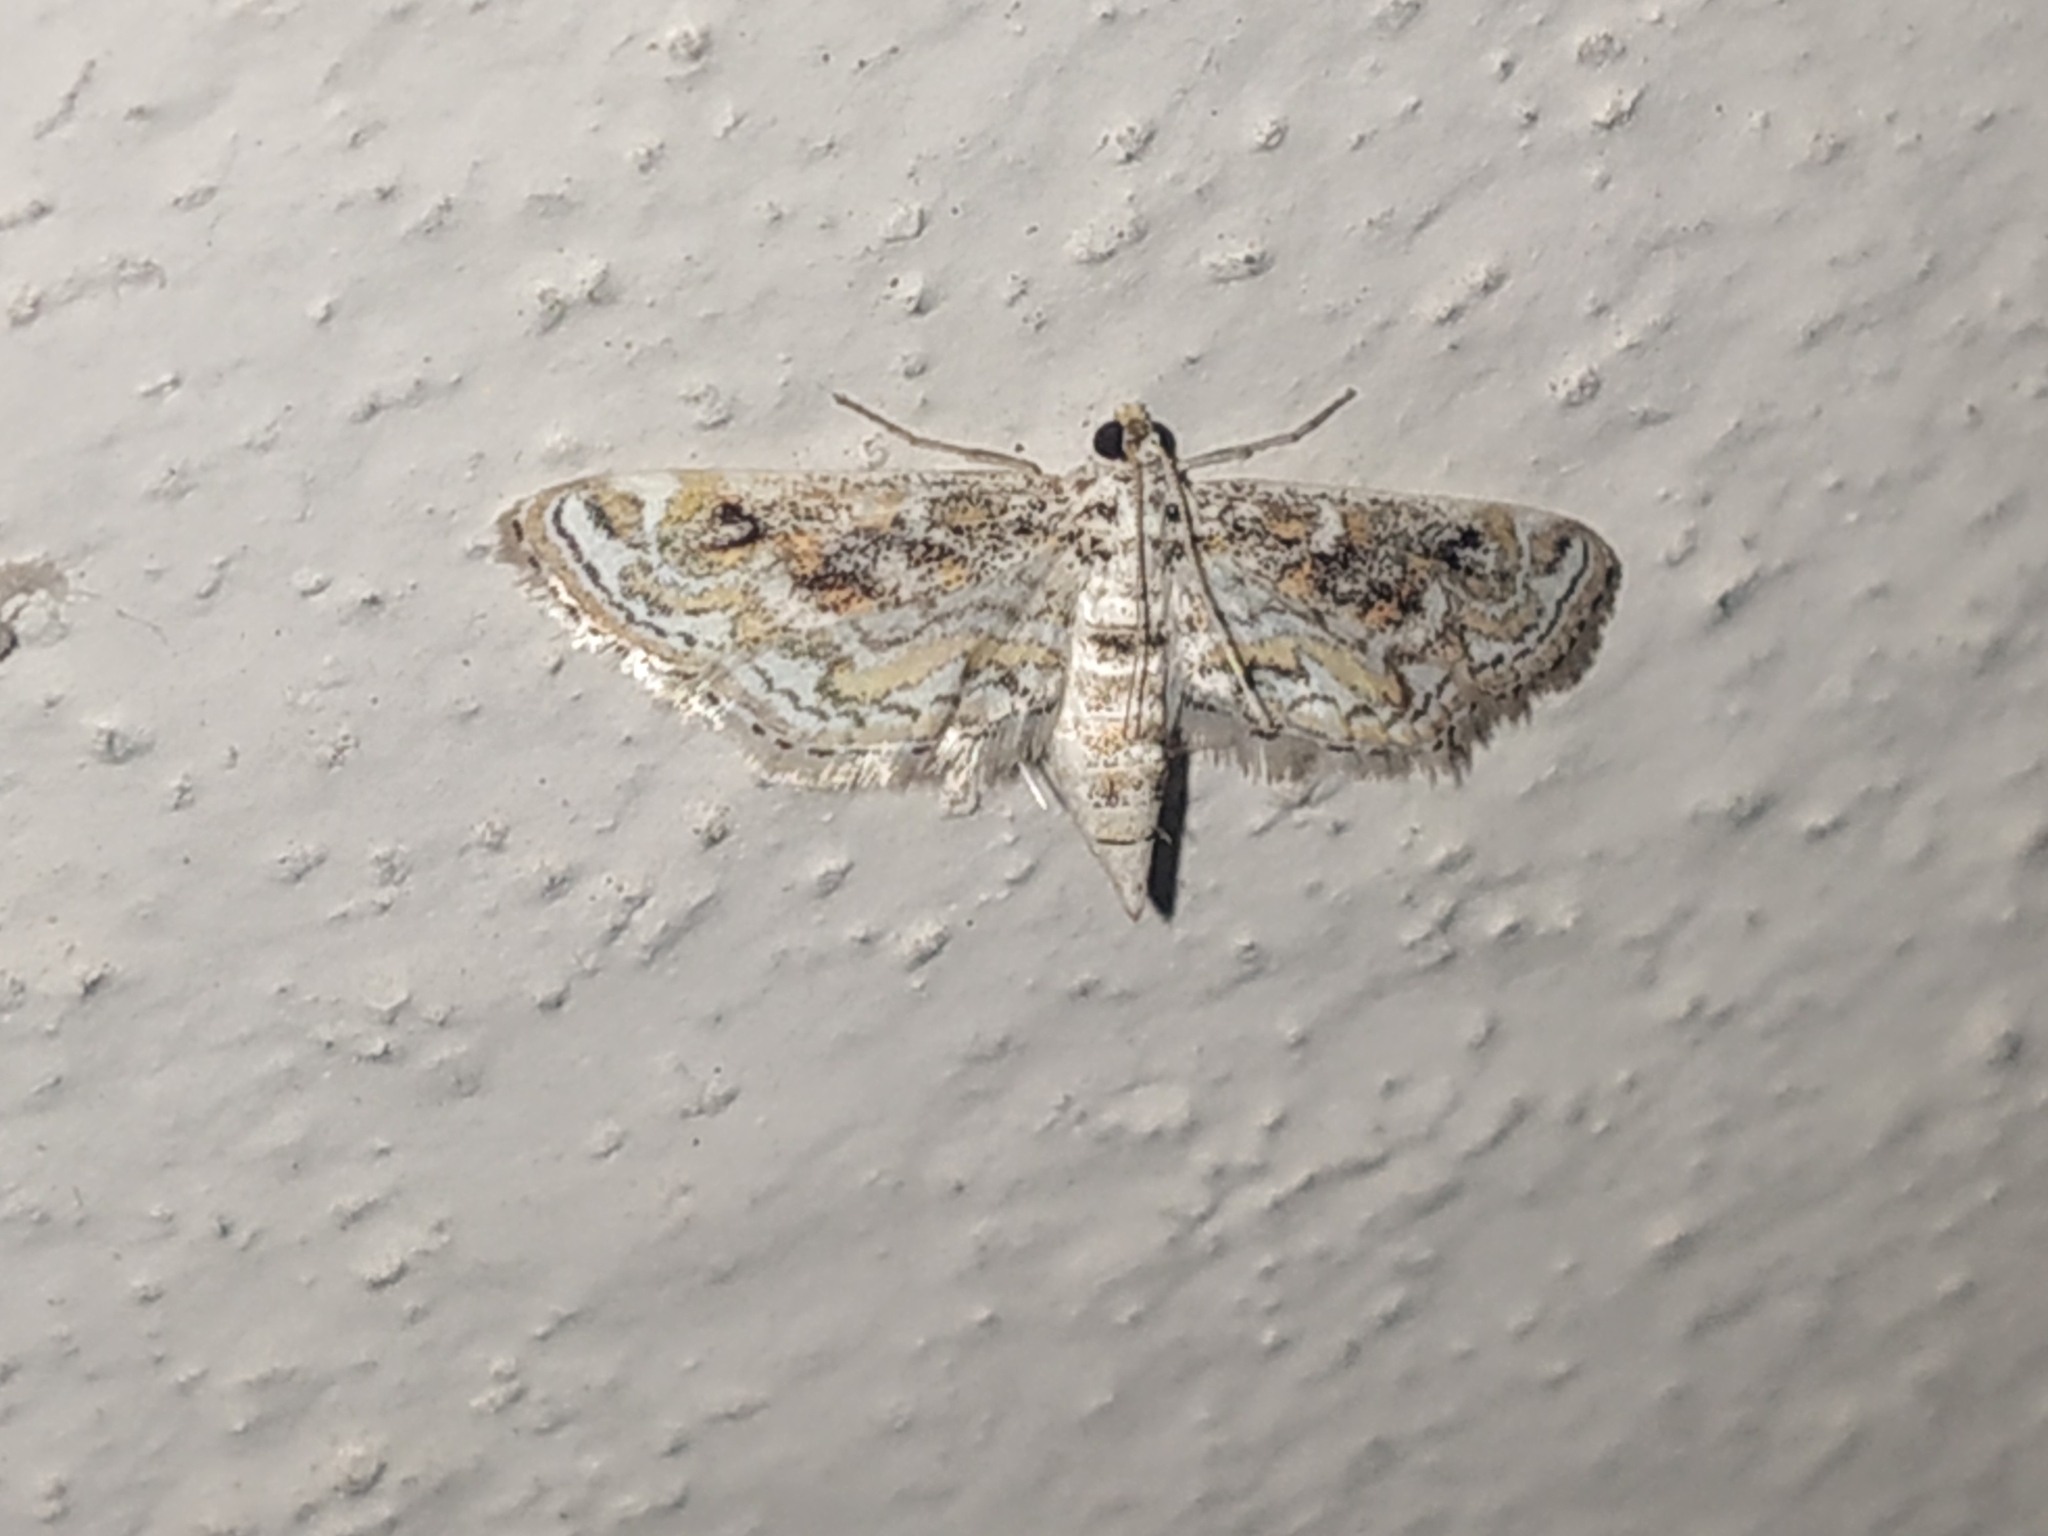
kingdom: Animalia
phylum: Arthropoda
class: Insecta
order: Lepidoptera
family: Crambidae
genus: Parapoynx
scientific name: Parapoynx diminutalis
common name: Hydrilla leafcutter
